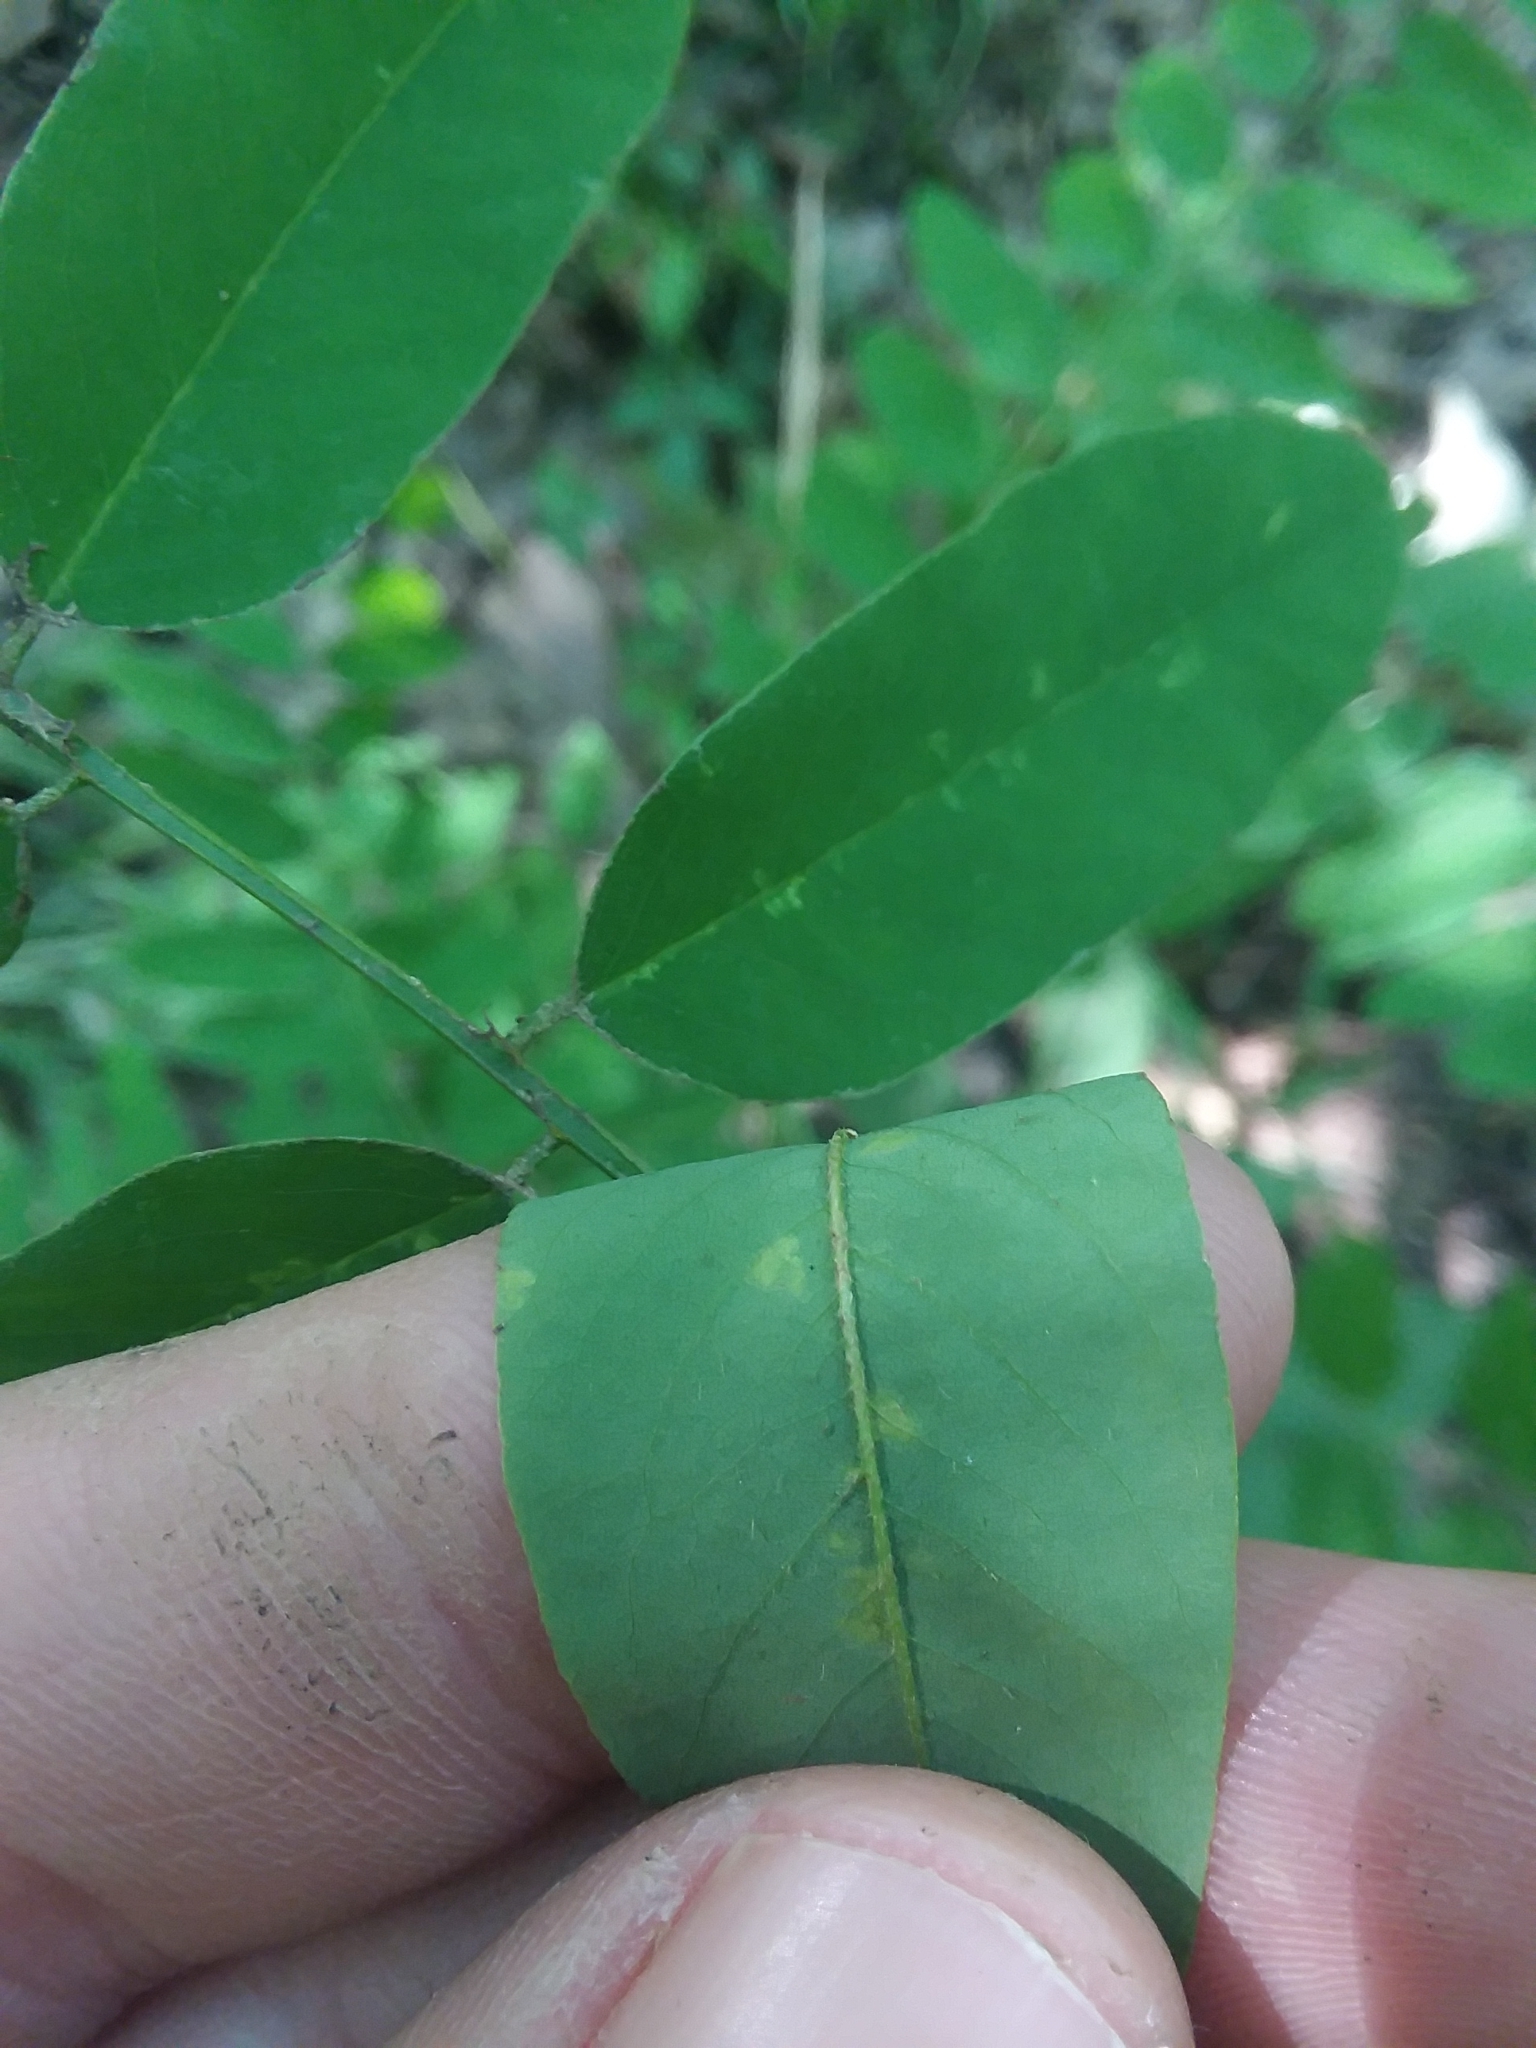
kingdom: Plantae
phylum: Tracheophyta
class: Magnoliopsida
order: Fabales
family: Fabaceae
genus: Amorpha
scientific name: Amorpha fruticosa
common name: False indigo
